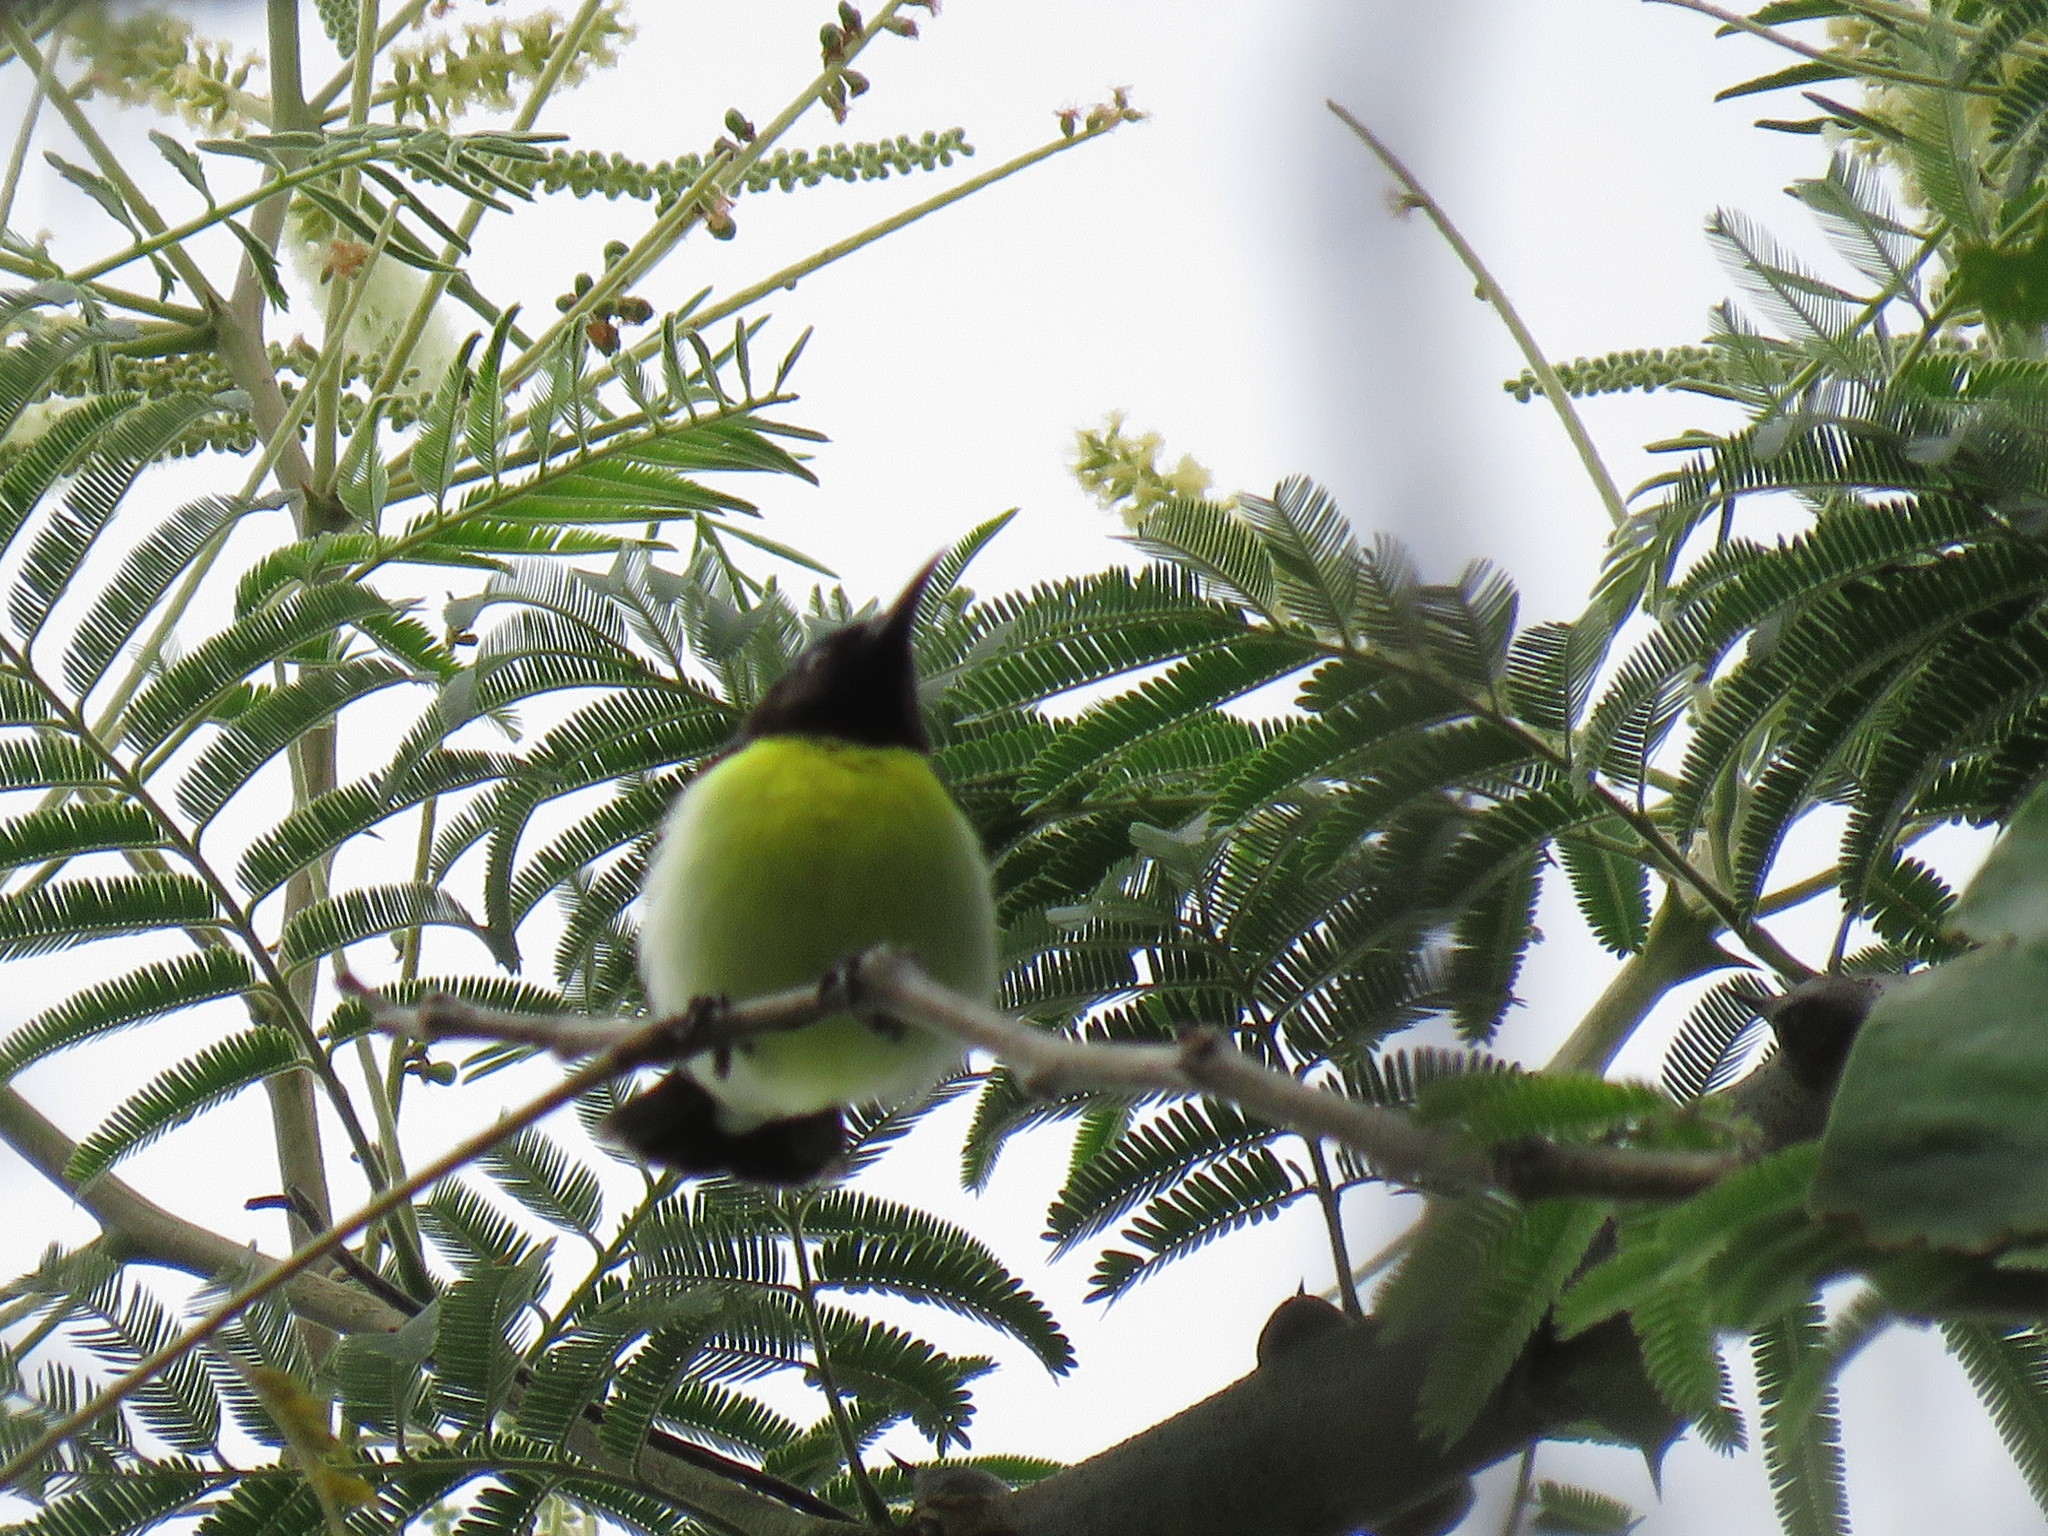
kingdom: Animalia
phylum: Chordata
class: Aves
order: Passeriformes
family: Nectariniidae
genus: Leptocoma
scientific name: Leptocoma zeylonica
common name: Purple-rumped sunbird
